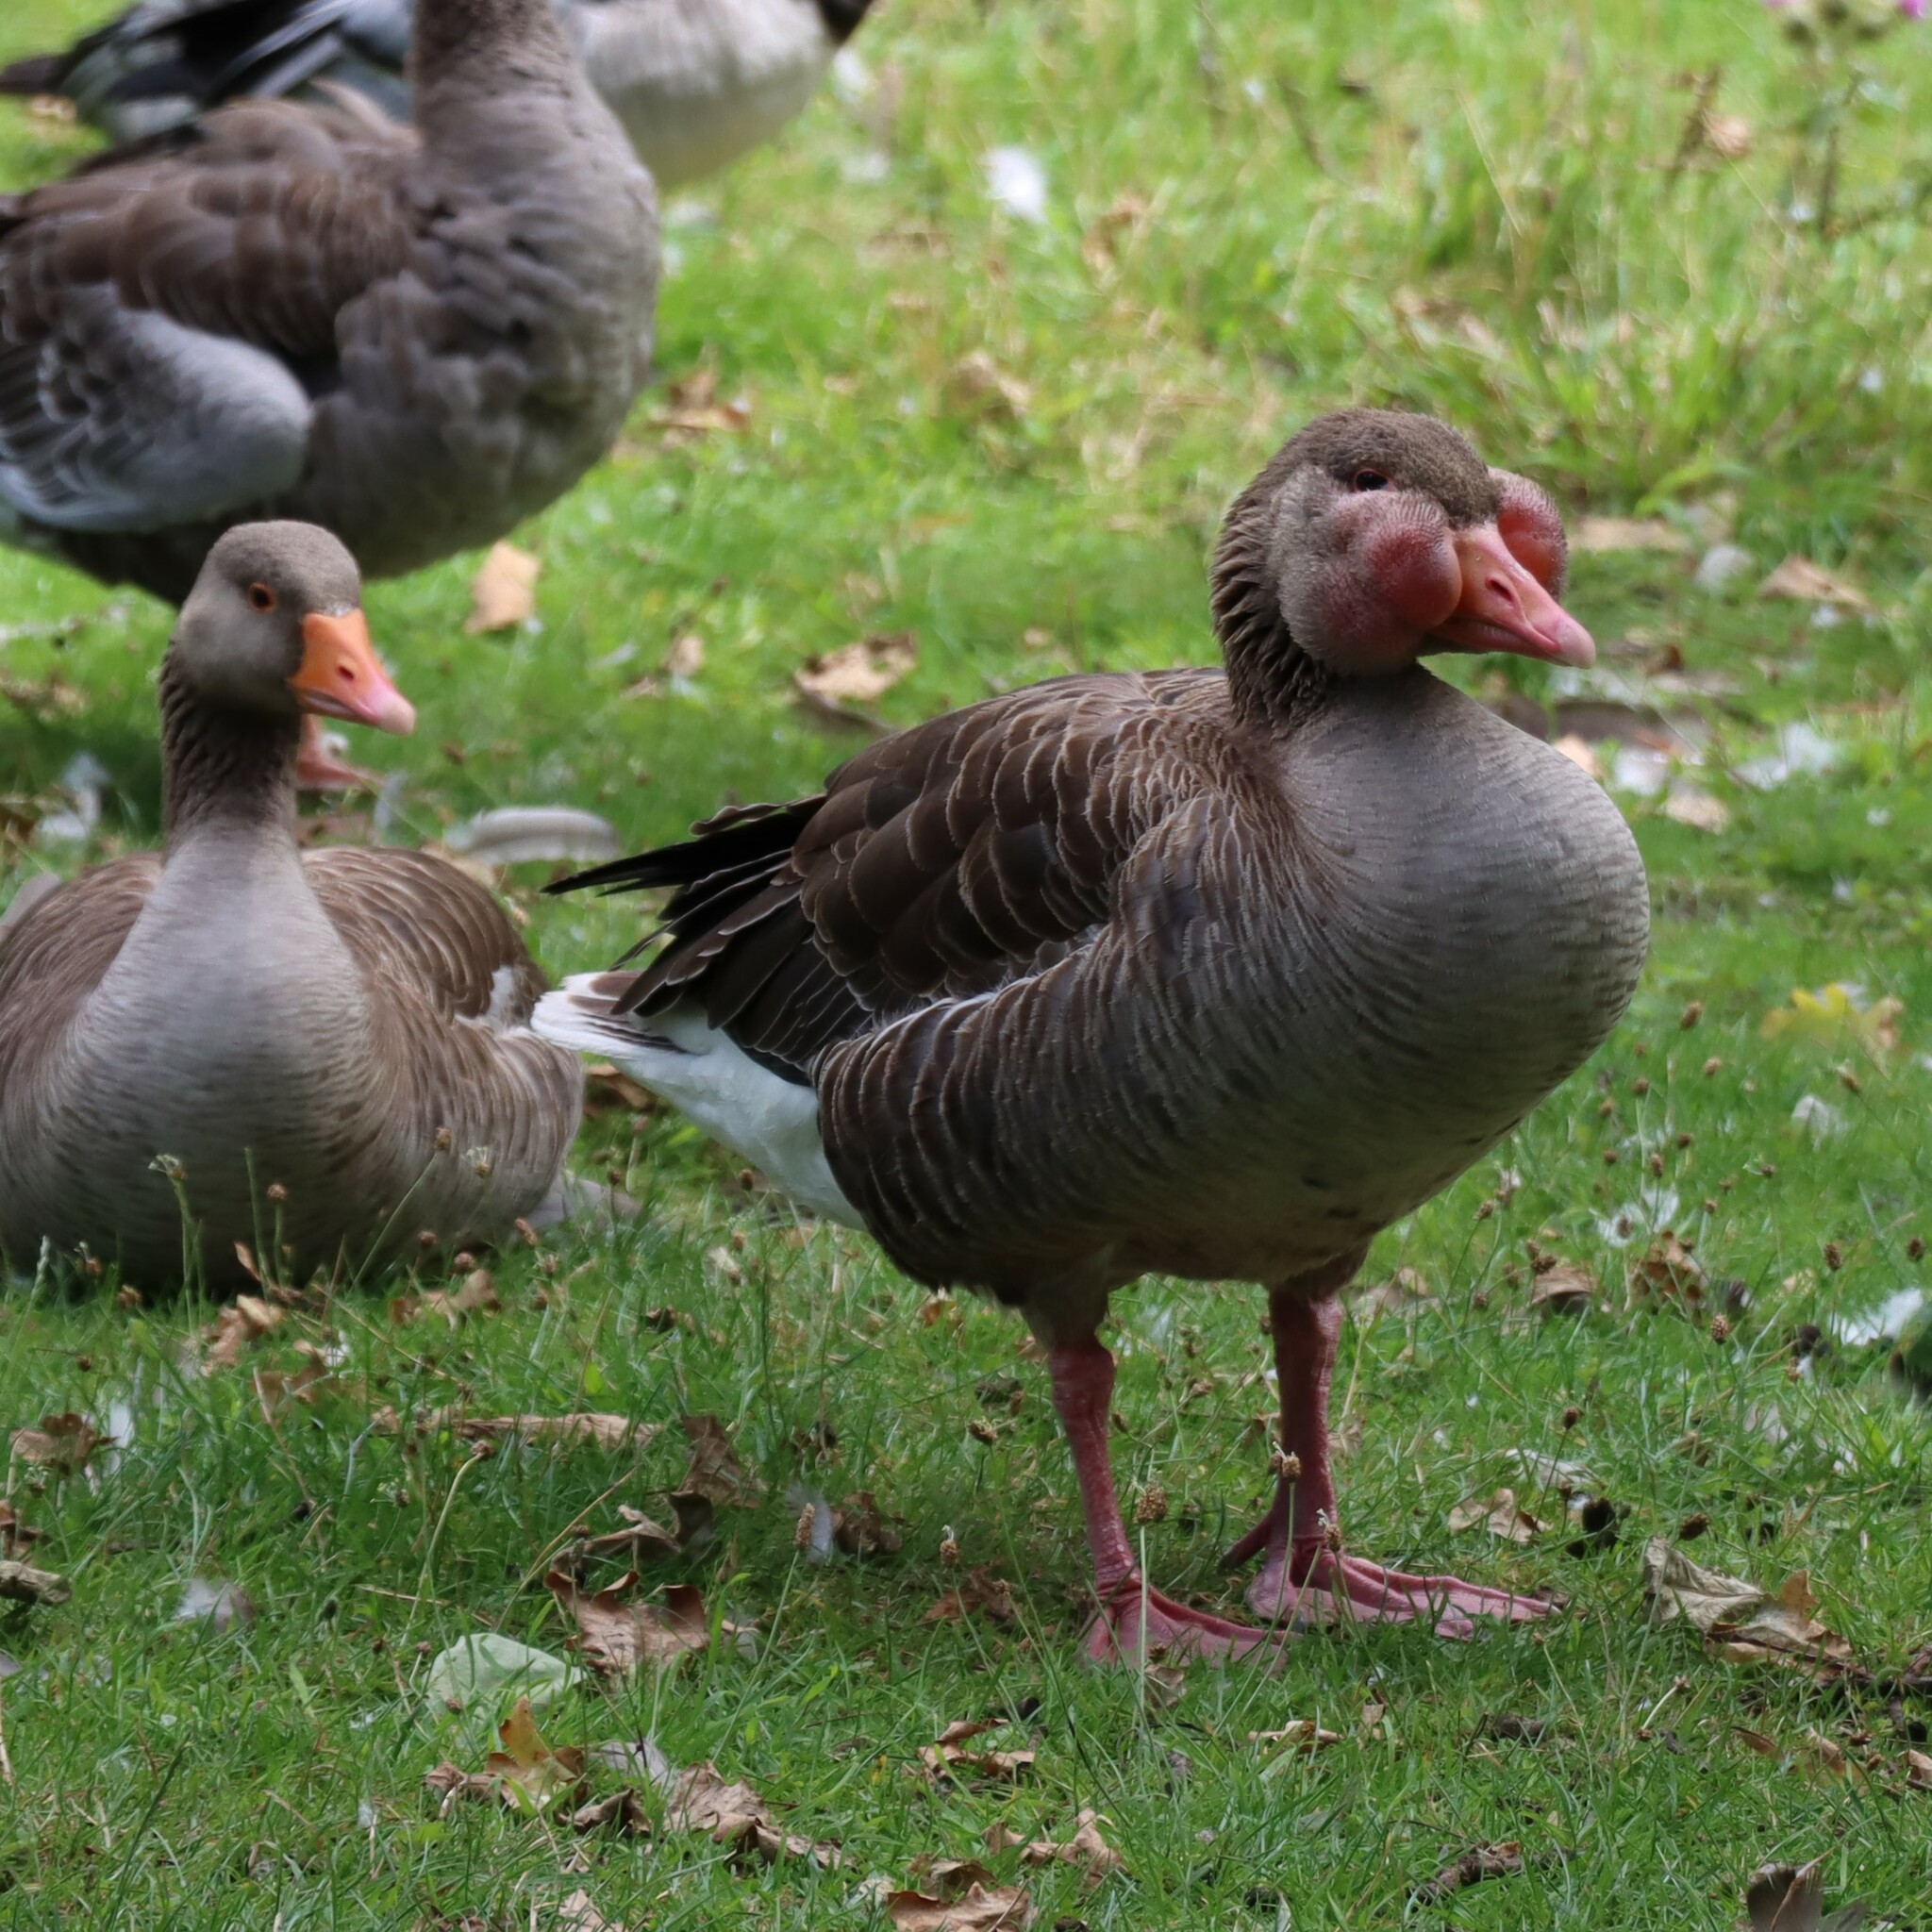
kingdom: Animalia
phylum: Chordata
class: Aves
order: Anseriformes
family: Anatidae
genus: Anser
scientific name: Anser anser
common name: Greylag goose
